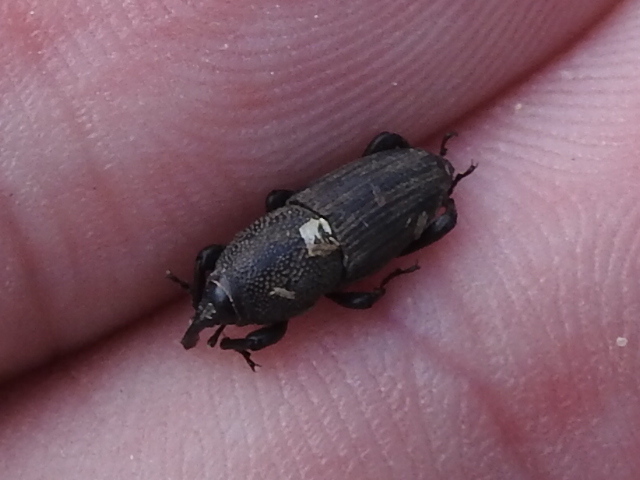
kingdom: Animalia
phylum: Arthropoda
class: Insecta
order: Coleoptera
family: Dryophthoridae
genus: Sphenophorus
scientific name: Sphenophorus coesifrons
